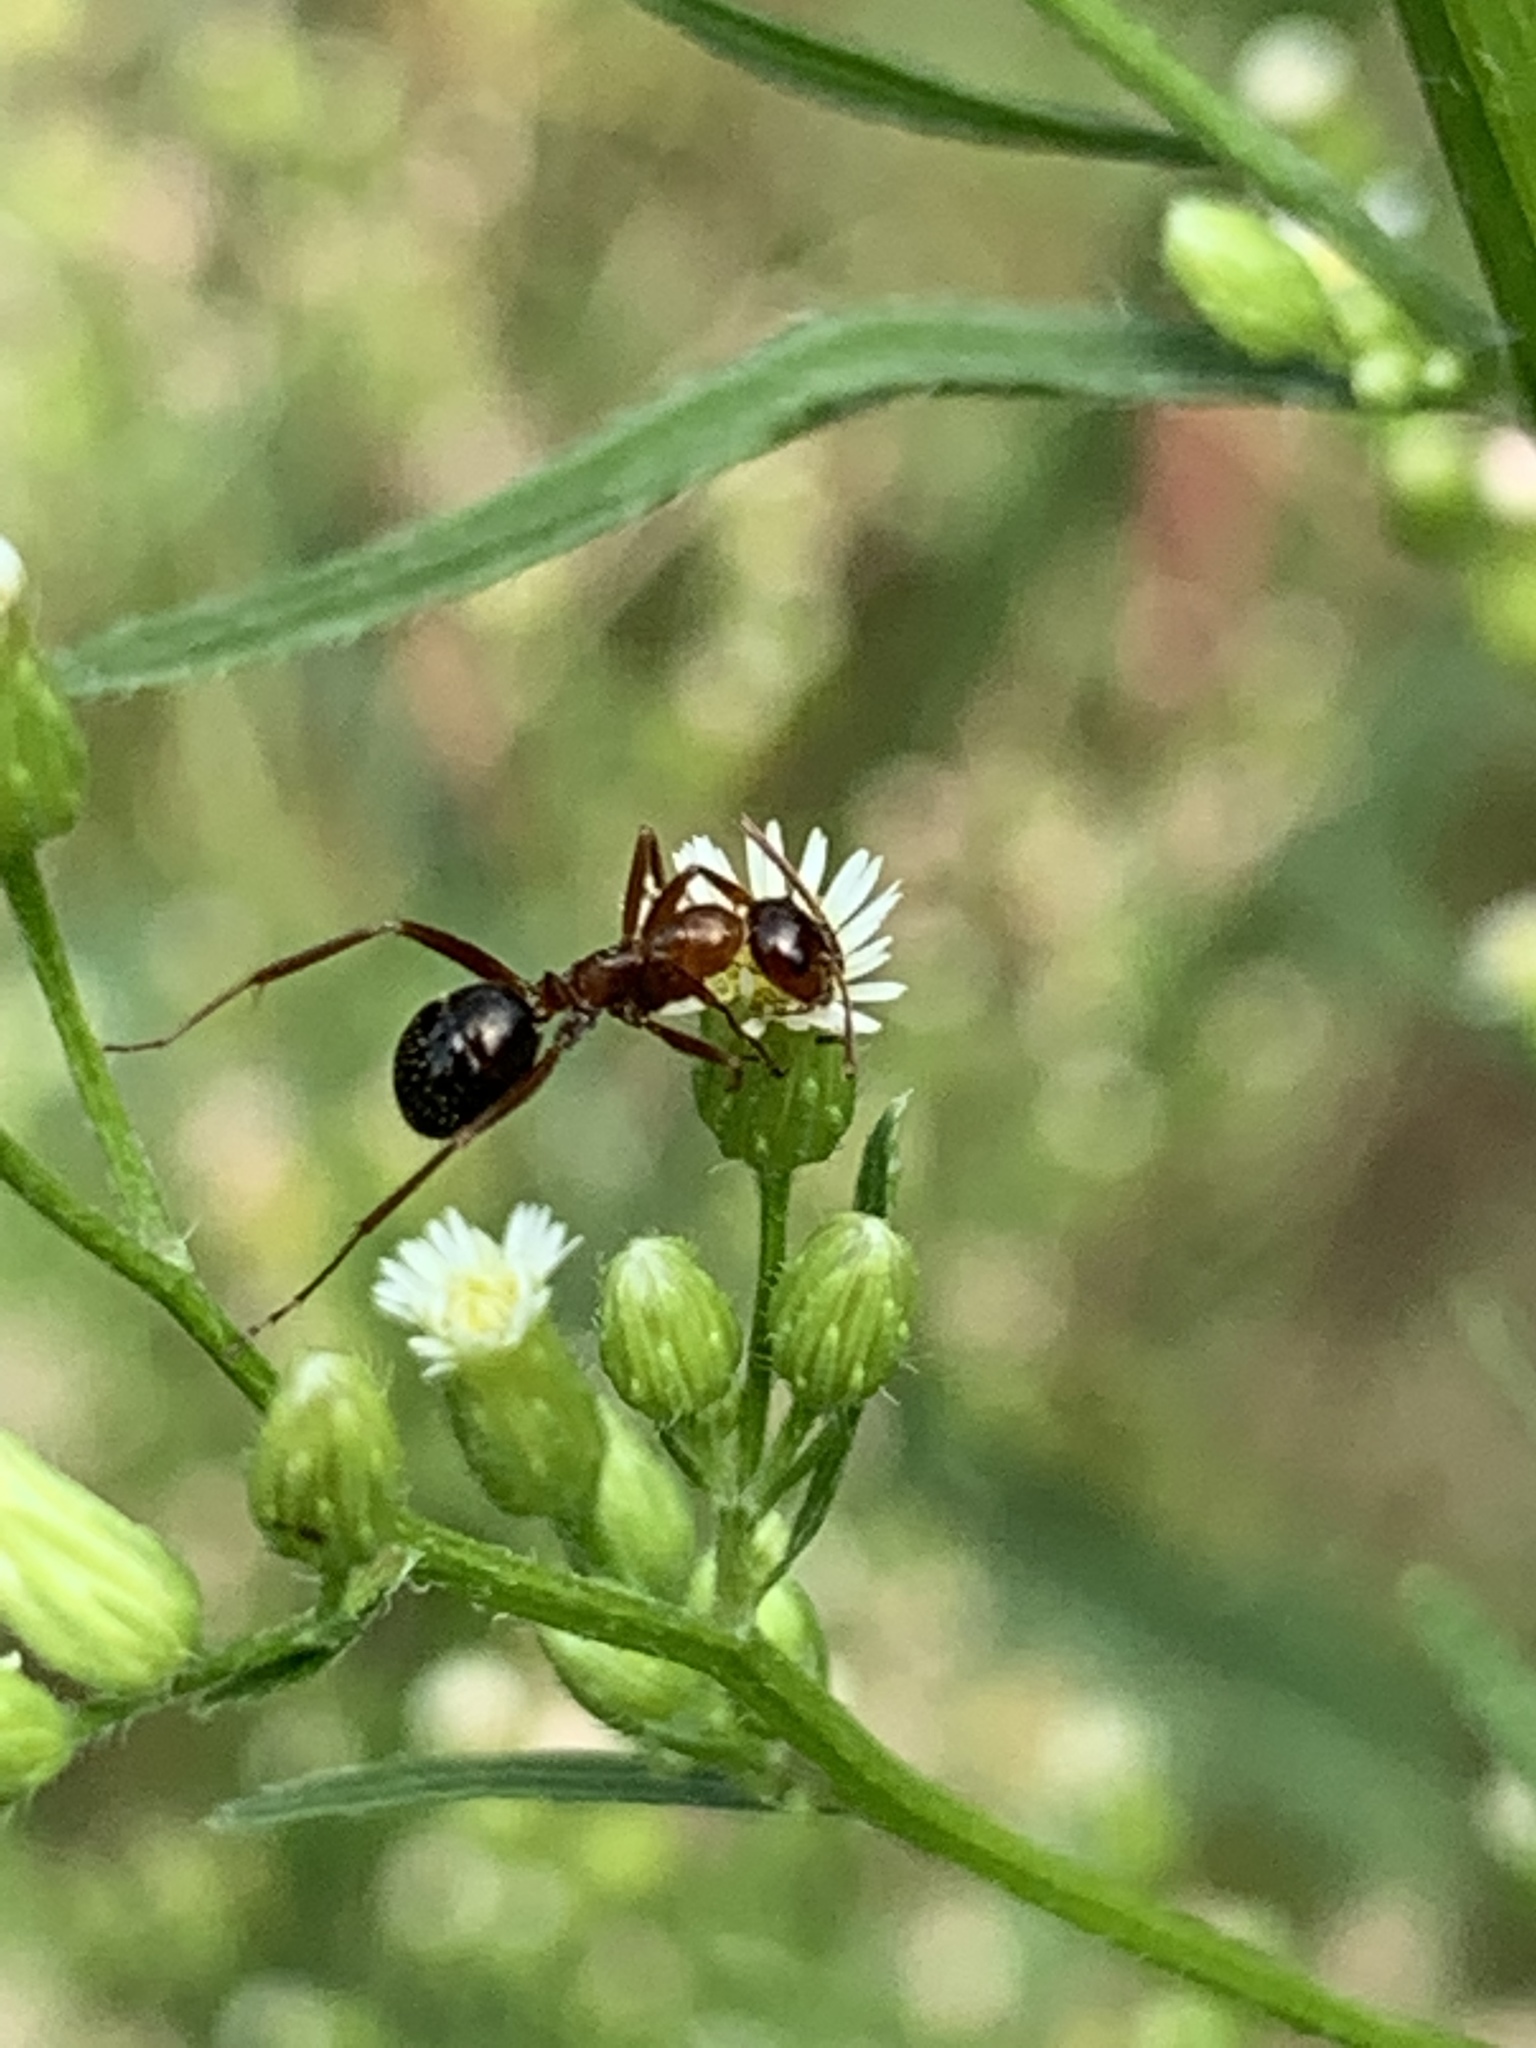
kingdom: Animalia
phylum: Arthropoda
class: Insecta
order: Hymenoptera
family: Formicidae
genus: Formica
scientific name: Formica
